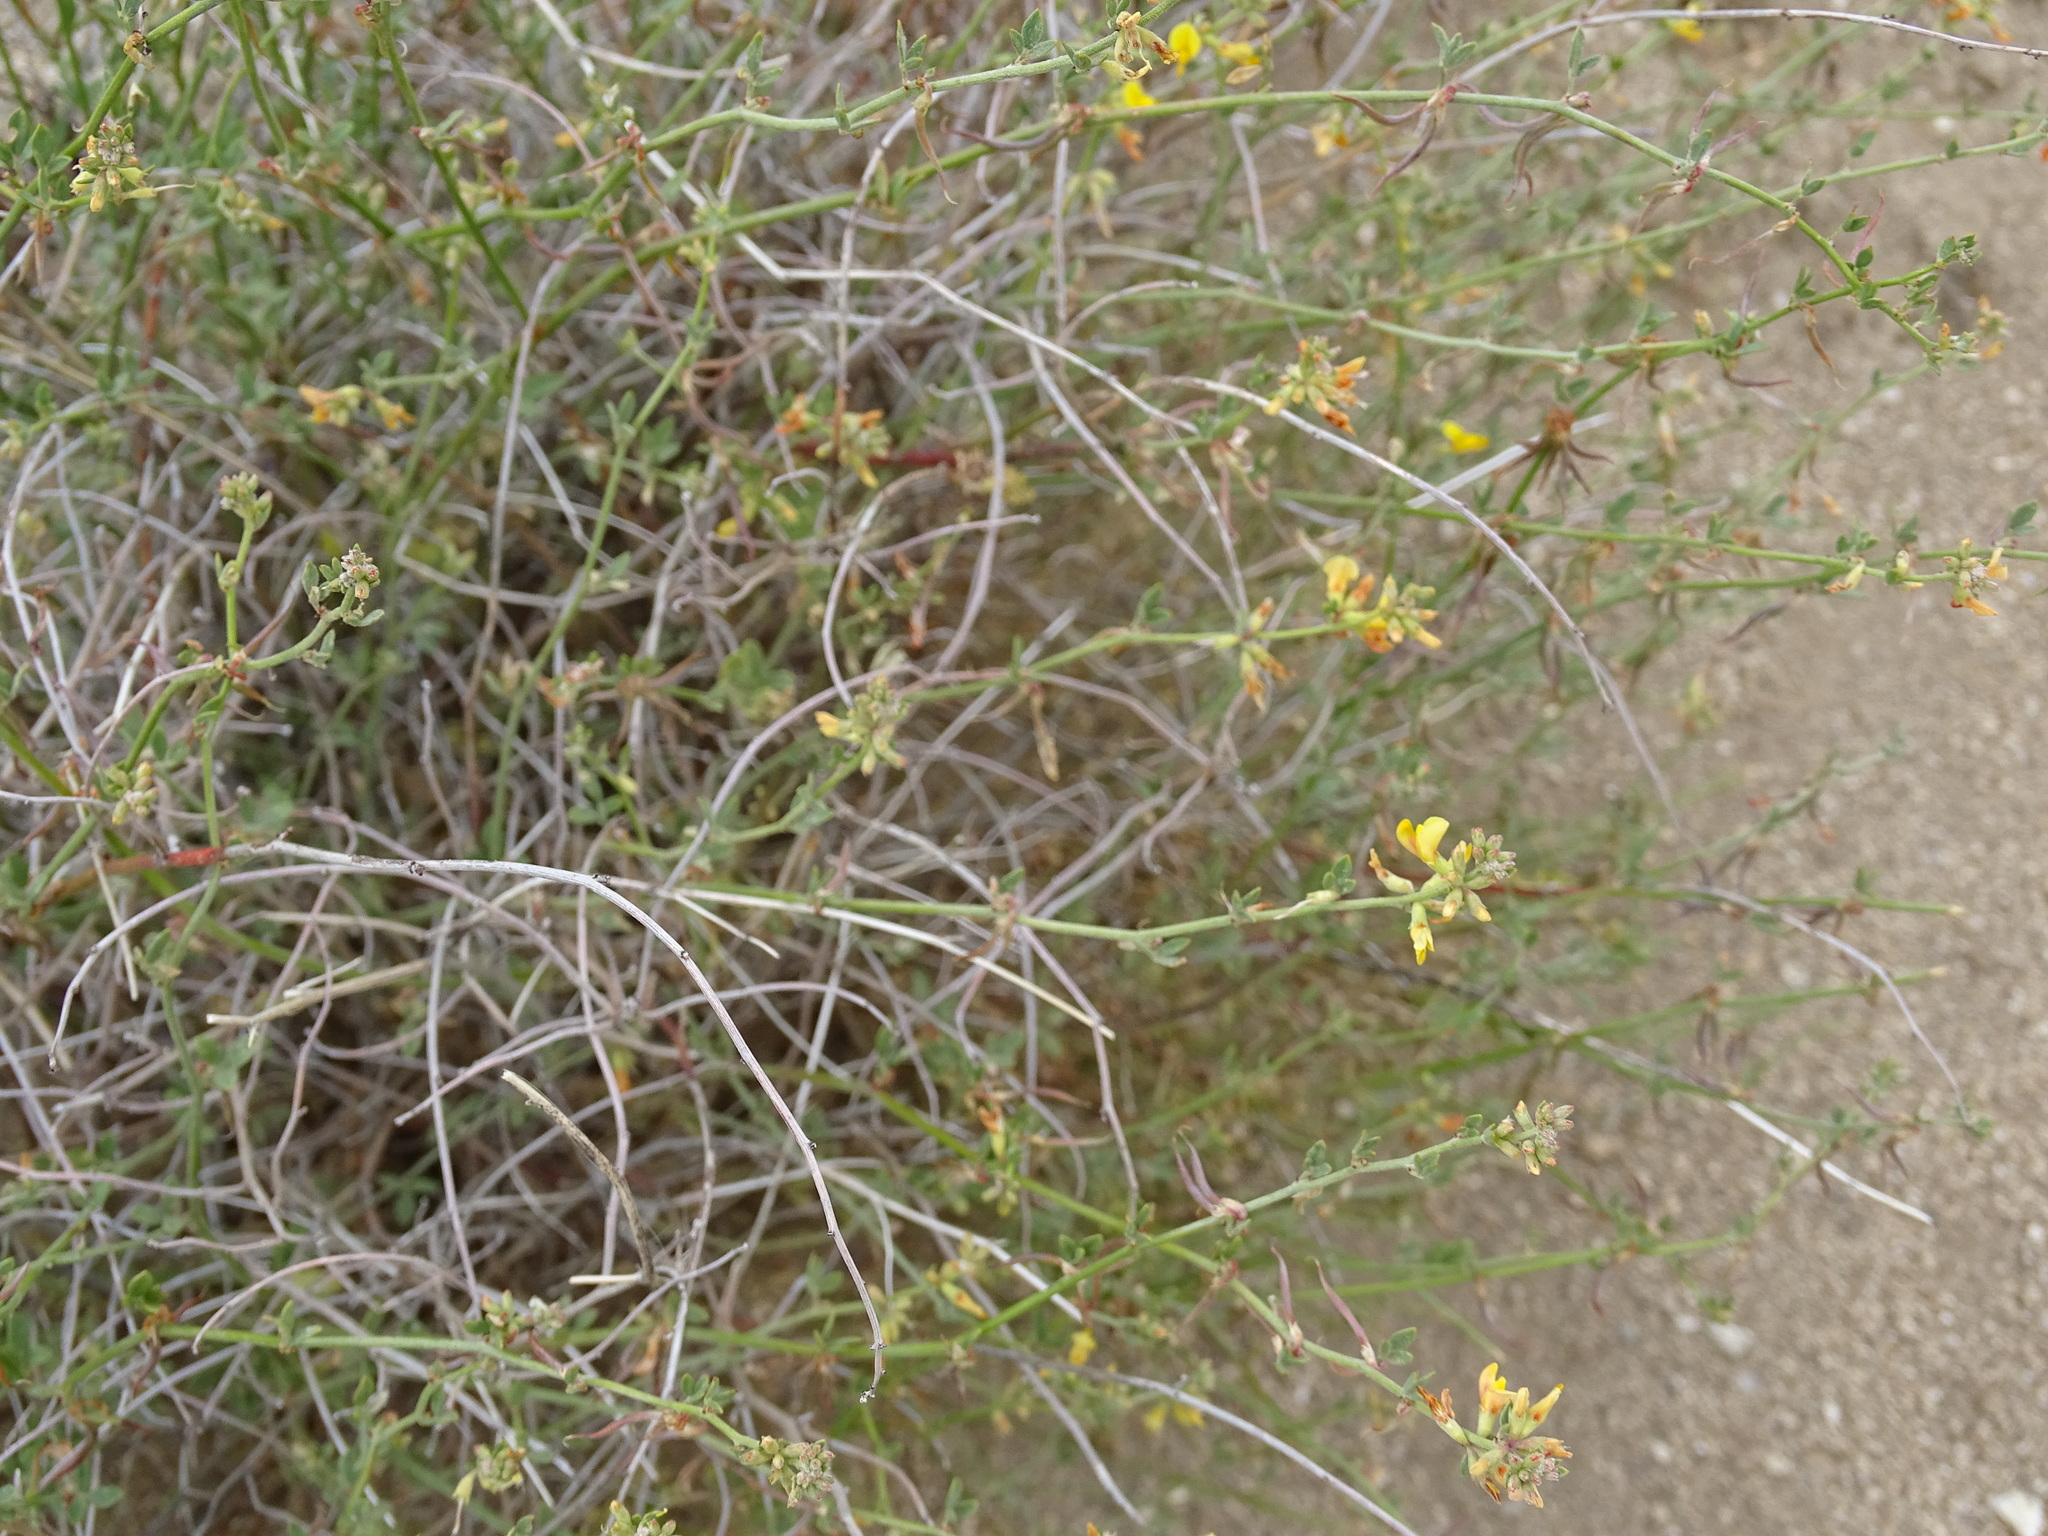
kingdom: Plantae
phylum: Tracheophyta
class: Magnoliopsida
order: Fabales
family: Fabaceae
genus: Acmispon
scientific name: Acmispon glaber
